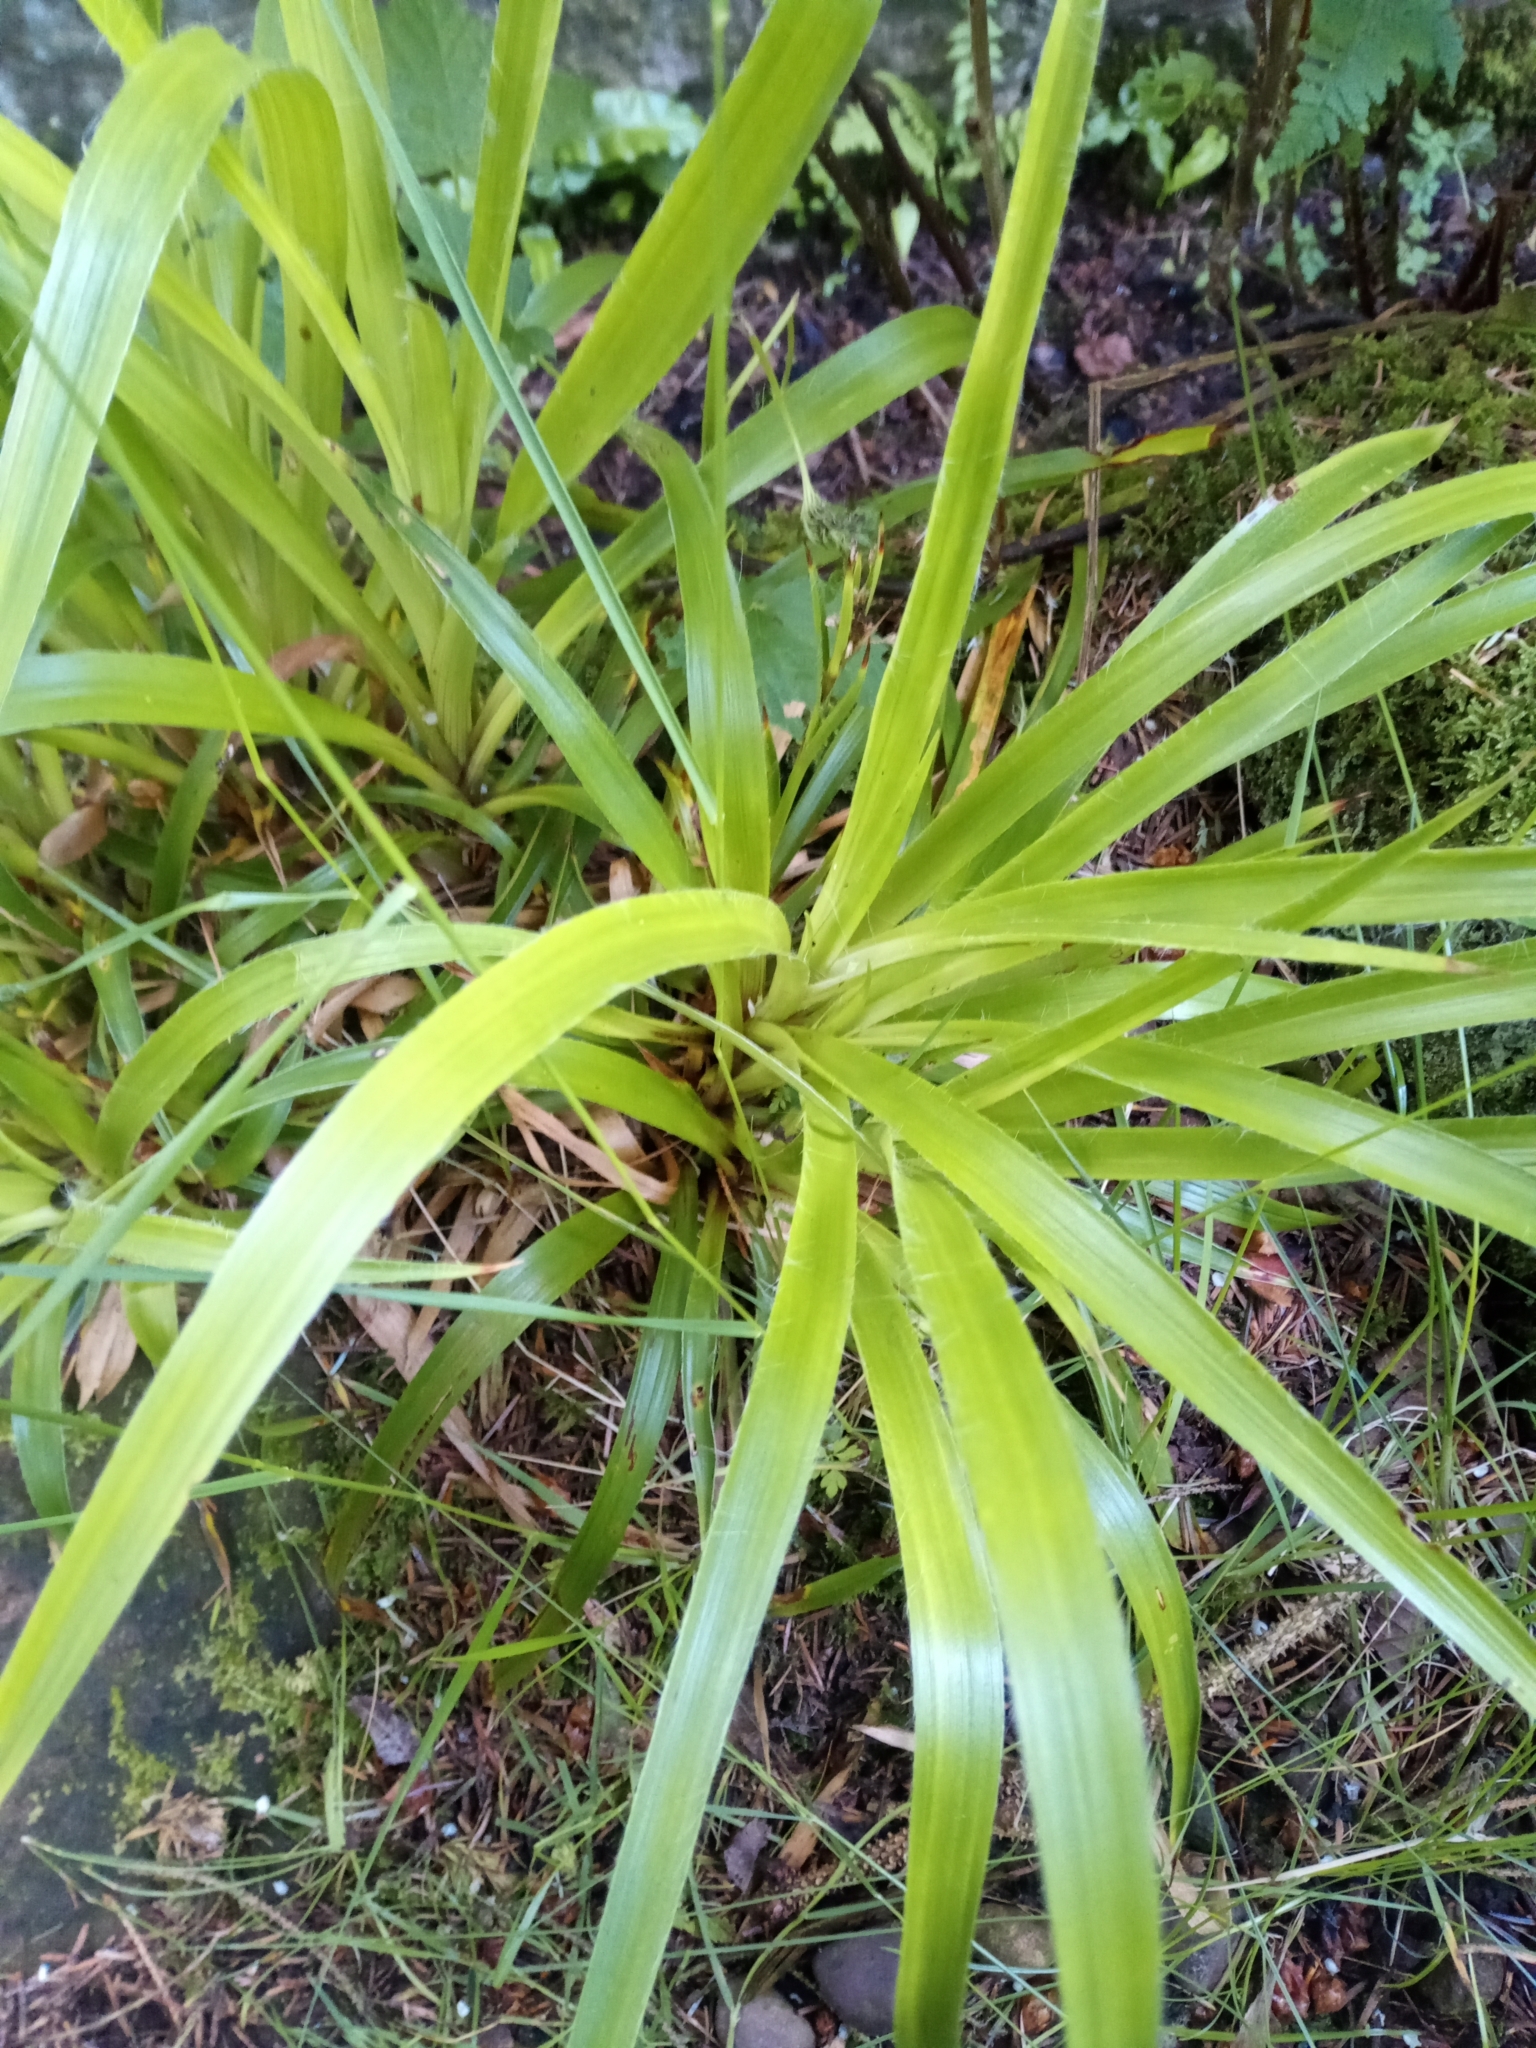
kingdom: Plantae
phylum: Tracheophyta
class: Liliopsida
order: Poales
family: Juncaceae
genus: Luzula
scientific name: Luzula sylvatica
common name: Great wood-rush
